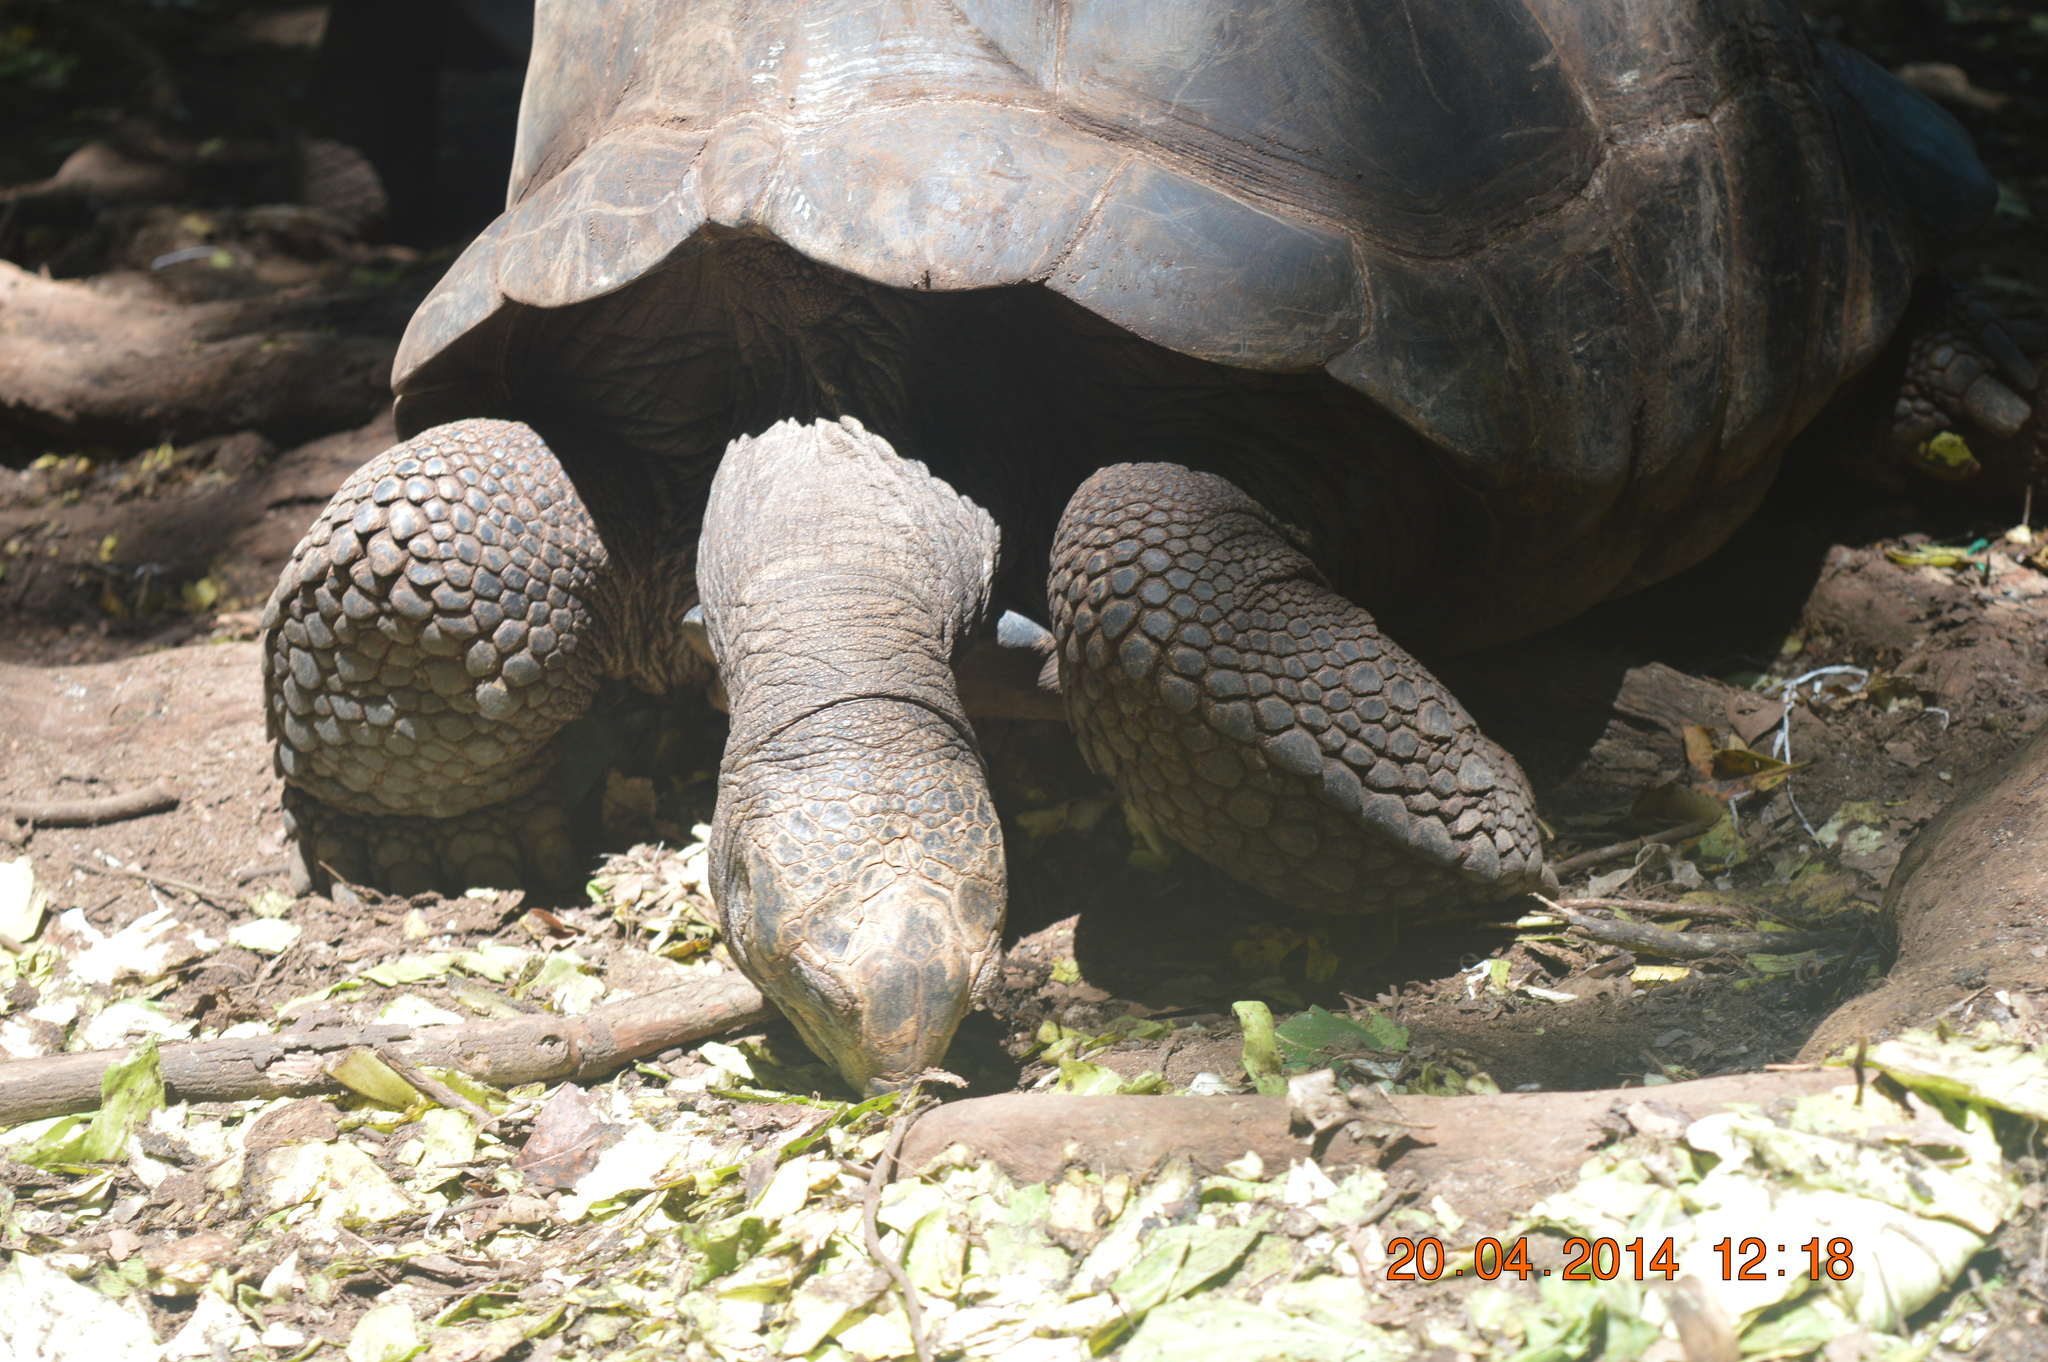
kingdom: Animalia
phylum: Chordata
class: Testudines
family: Testudinidae
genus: Aldabrachelys
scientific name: Aldabrachelys gigantea
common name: Aldabra giant tortoise
